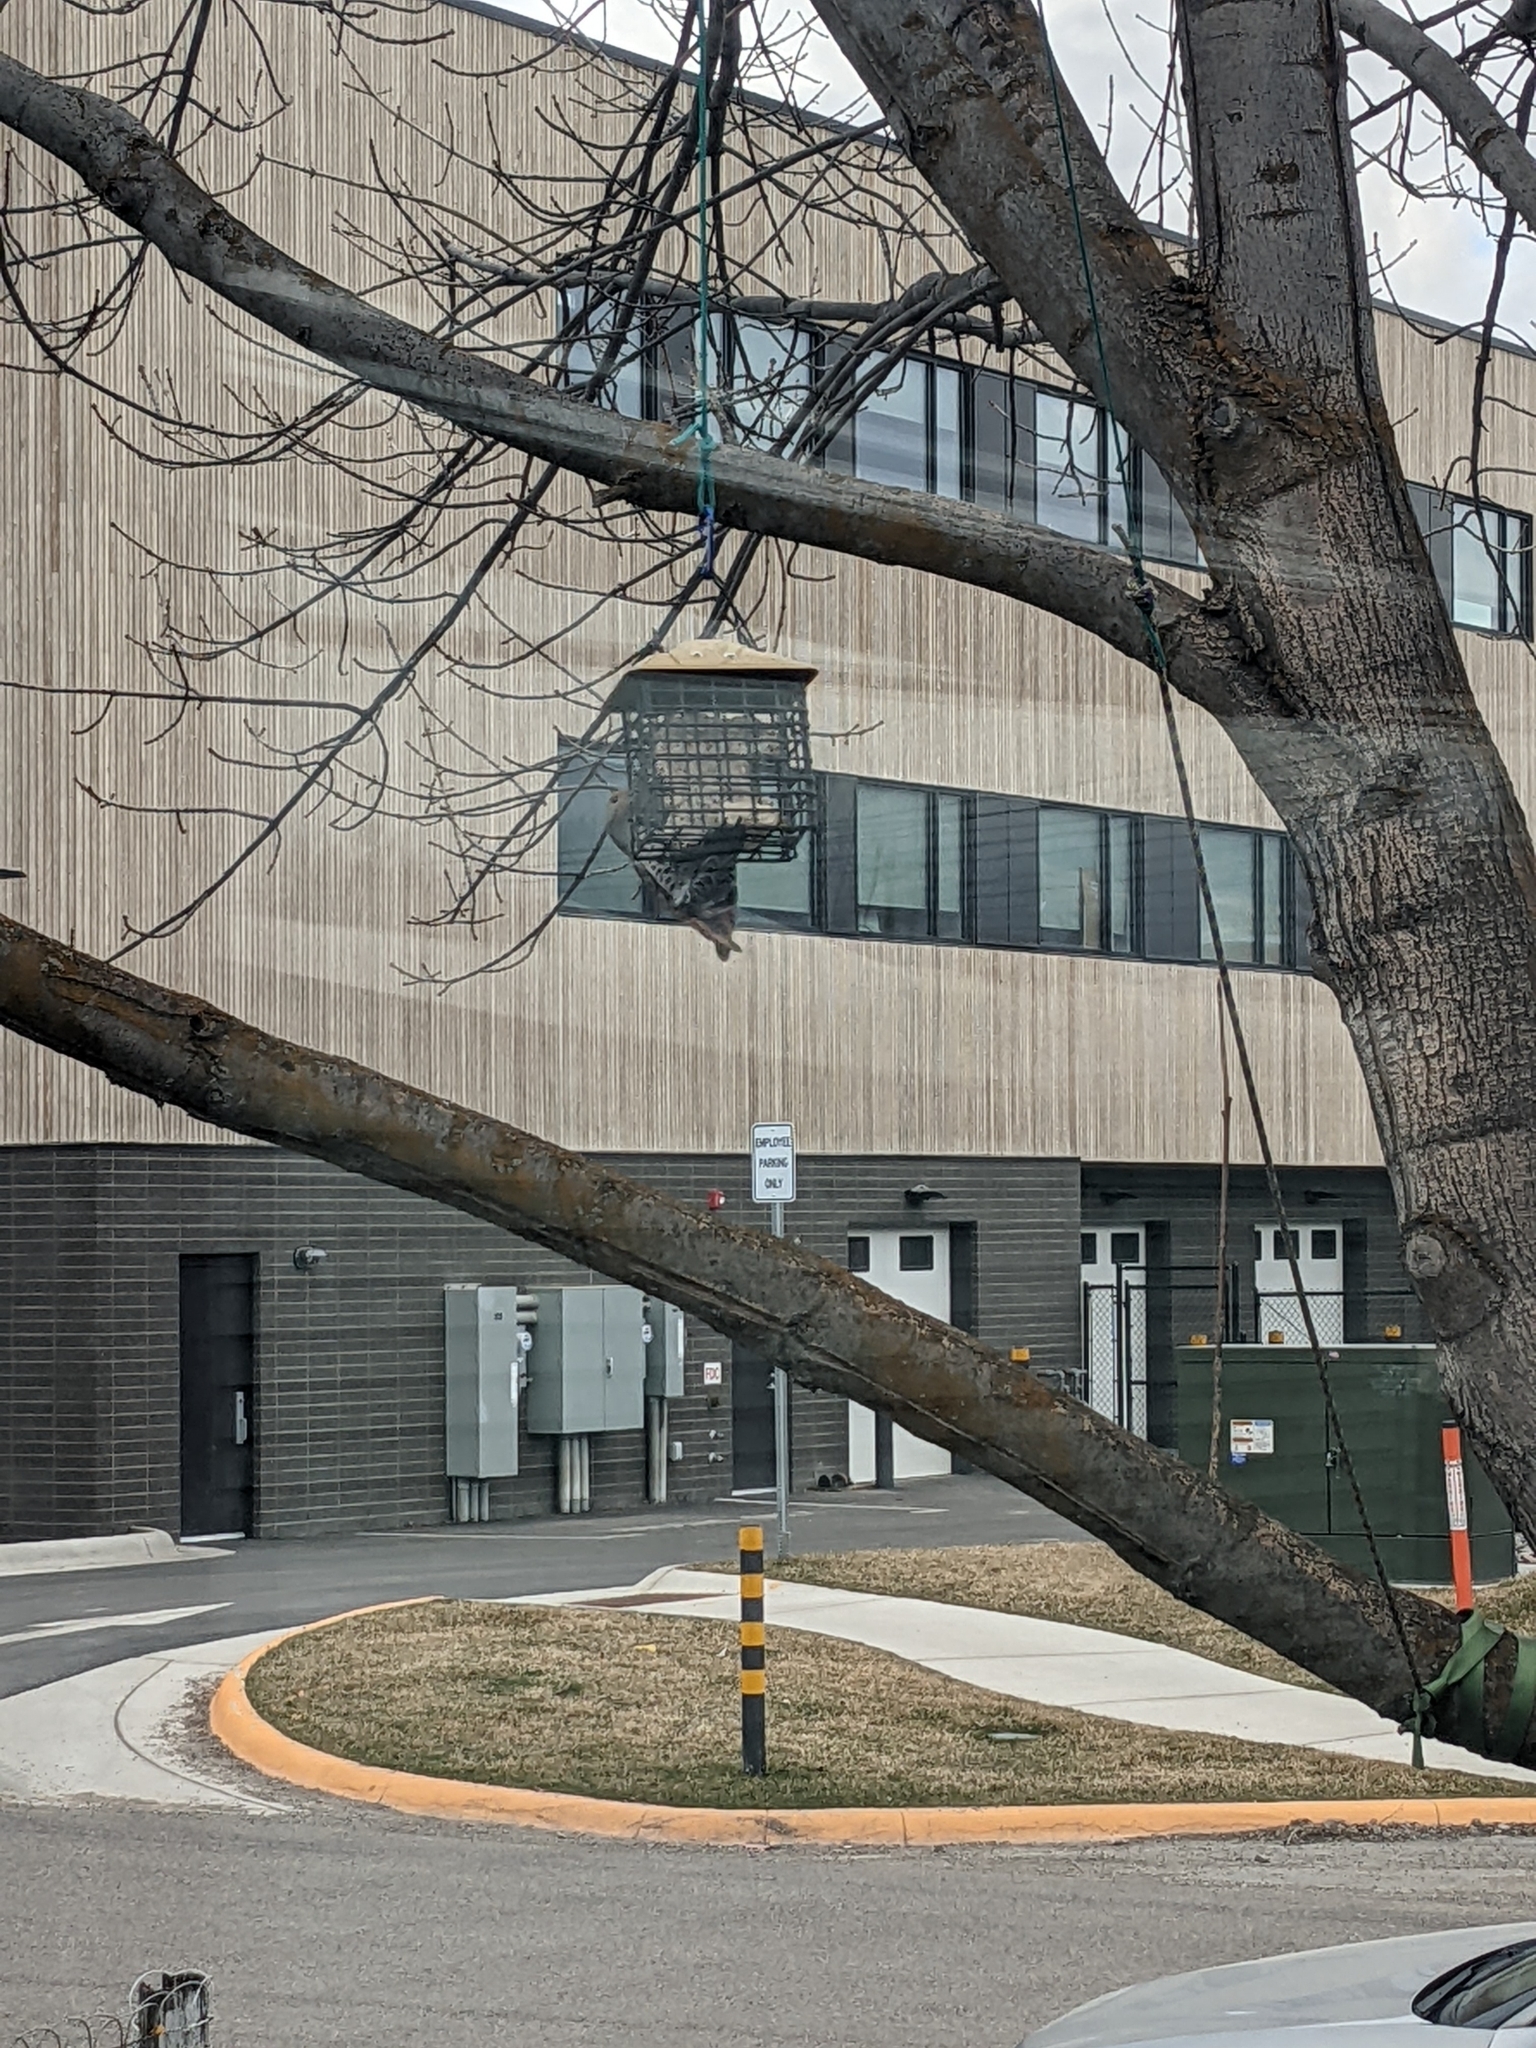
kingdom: Animalia
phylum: Chordata
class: Aves
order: Piciformes
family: Picidae
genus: Colaptes
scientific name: Colaptes auratus
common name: Northern flicker
